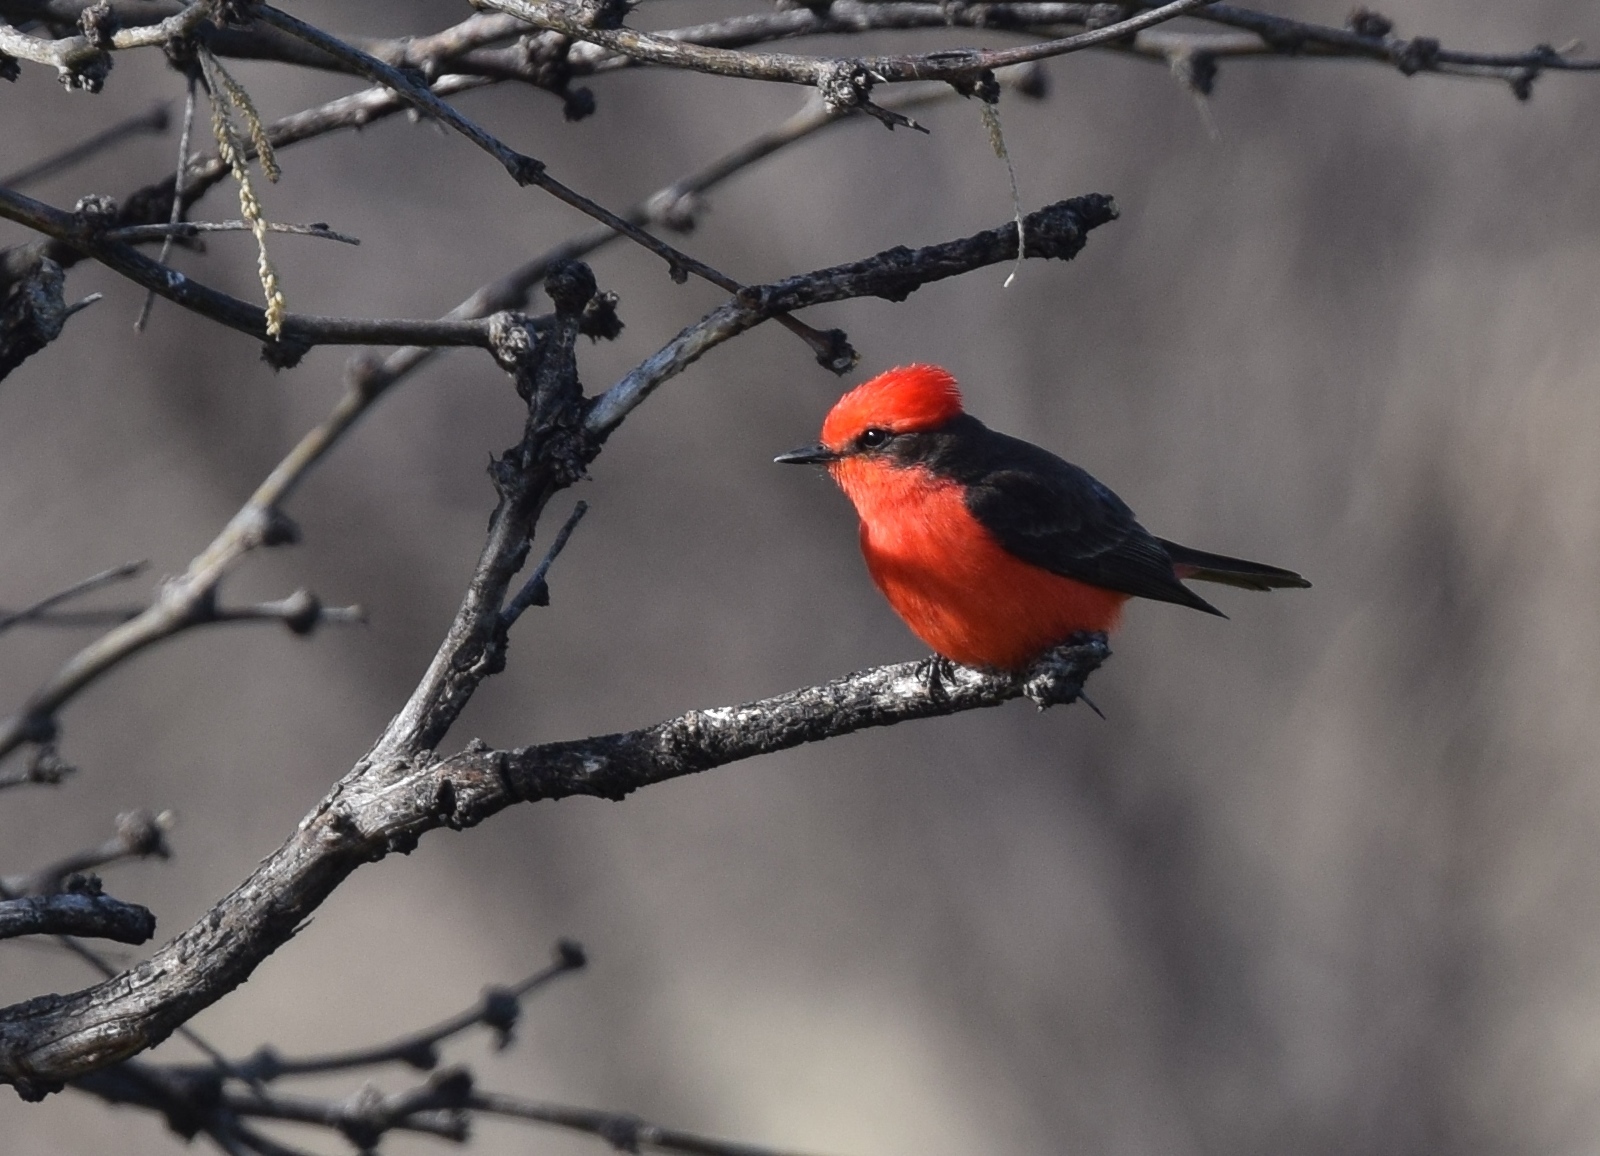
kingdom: Animalia
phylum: Chordata
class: Aves
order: Passeriformes
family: Tyrannidae
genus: Pyrocephalus
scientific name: Pyrocephalus rubinus
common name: Vermilion flycatcher
